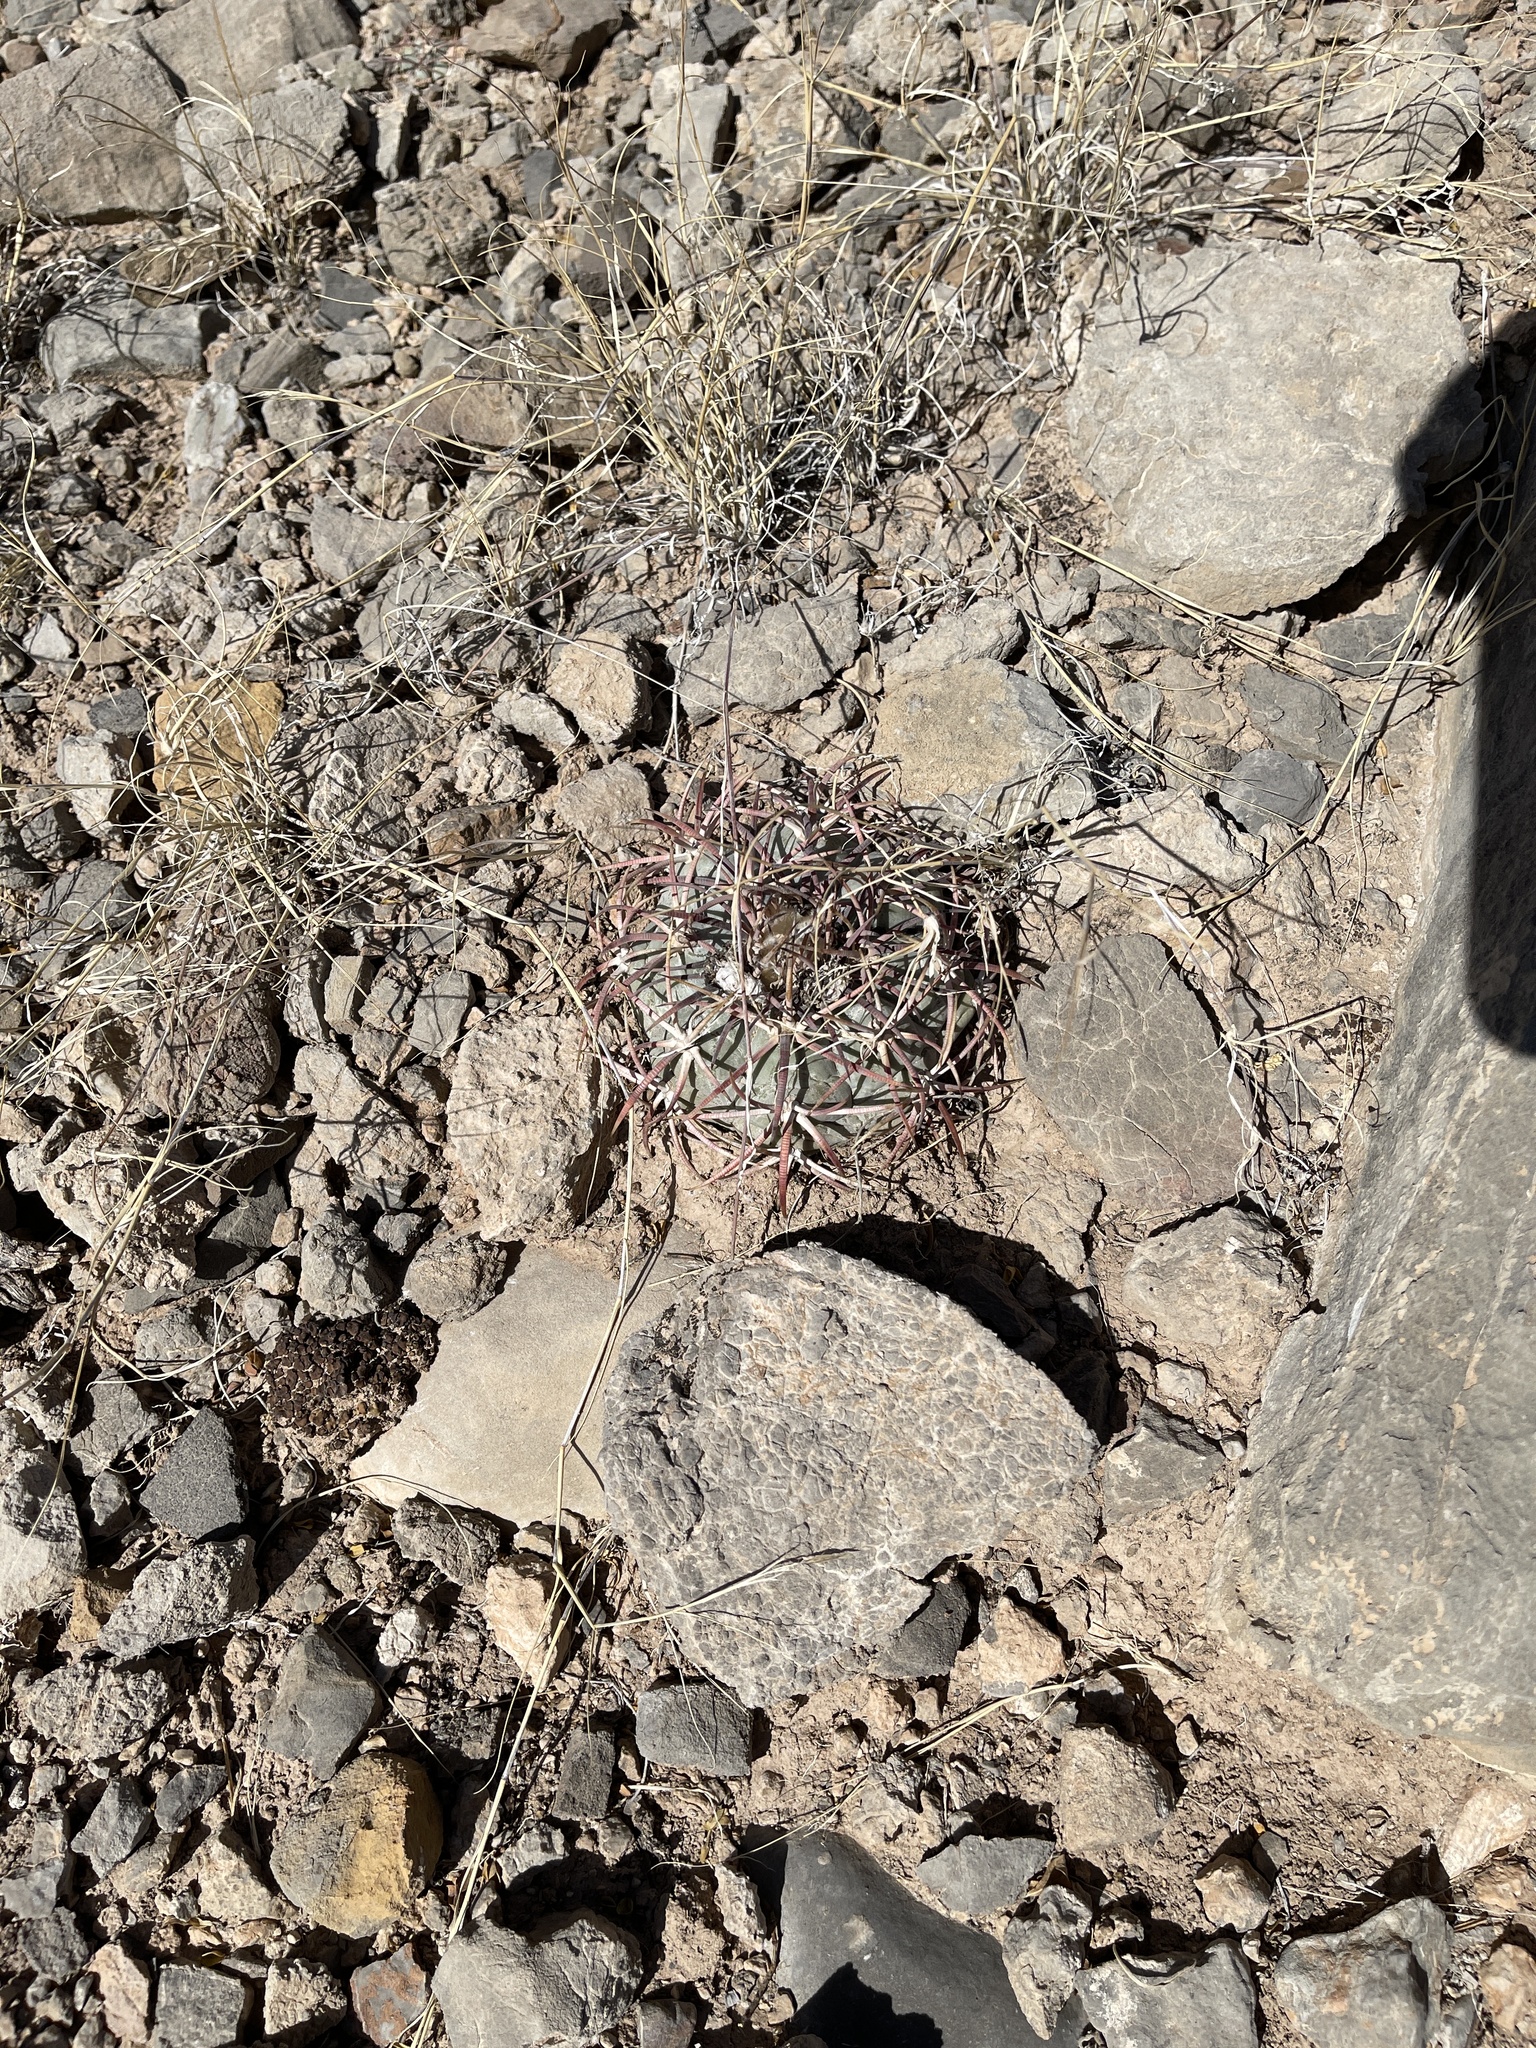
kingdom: Plantae
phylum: Tracheophyta
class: Magnoliopsida
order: Caryophyllales
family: Cactaceae
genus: Echinocactus
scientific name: Echinocactus horizonthalonius
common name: Devilshead
